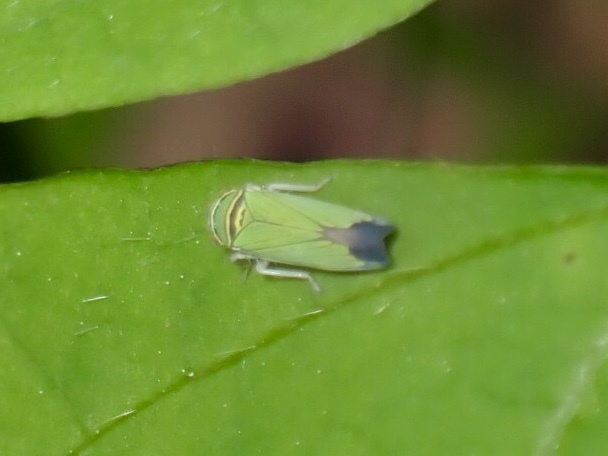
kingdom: Animalia
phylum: Arthropoda
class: Insecta
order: Hemiptera
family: Cicadellidae
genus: Tylozygus
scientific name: Tylozygus geometricus
